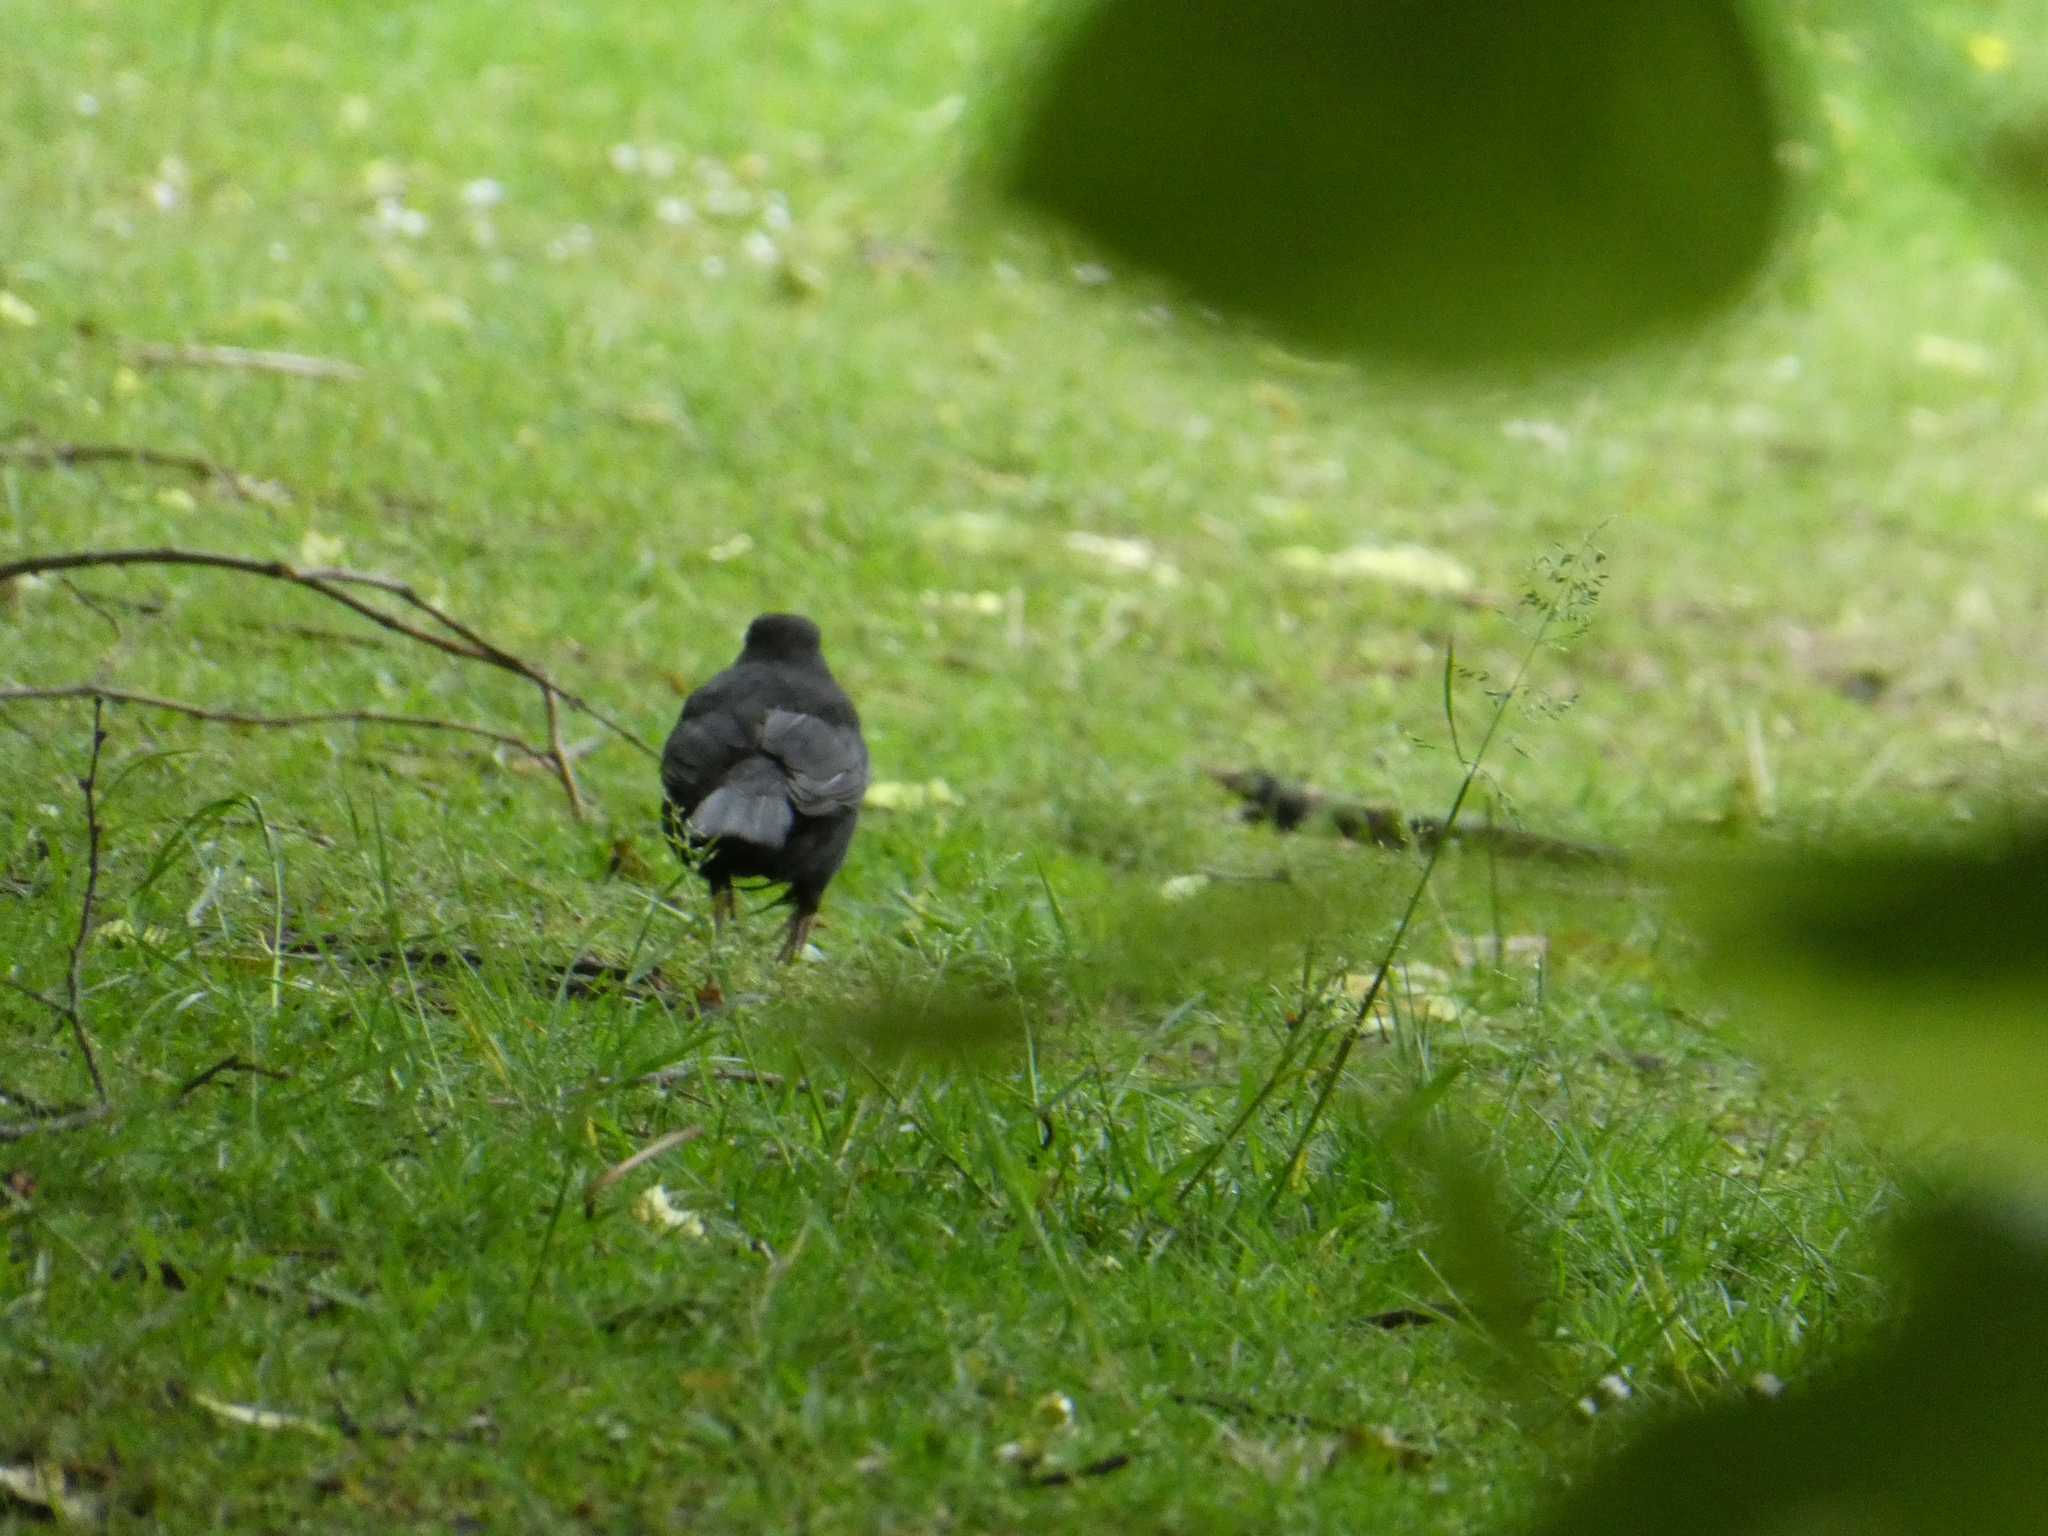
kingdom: Animalia
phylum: Chordata
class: Aves
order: Passeriformes
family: Turdidae
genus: Turdus
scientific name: Turdus merula
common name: Common blackbird
